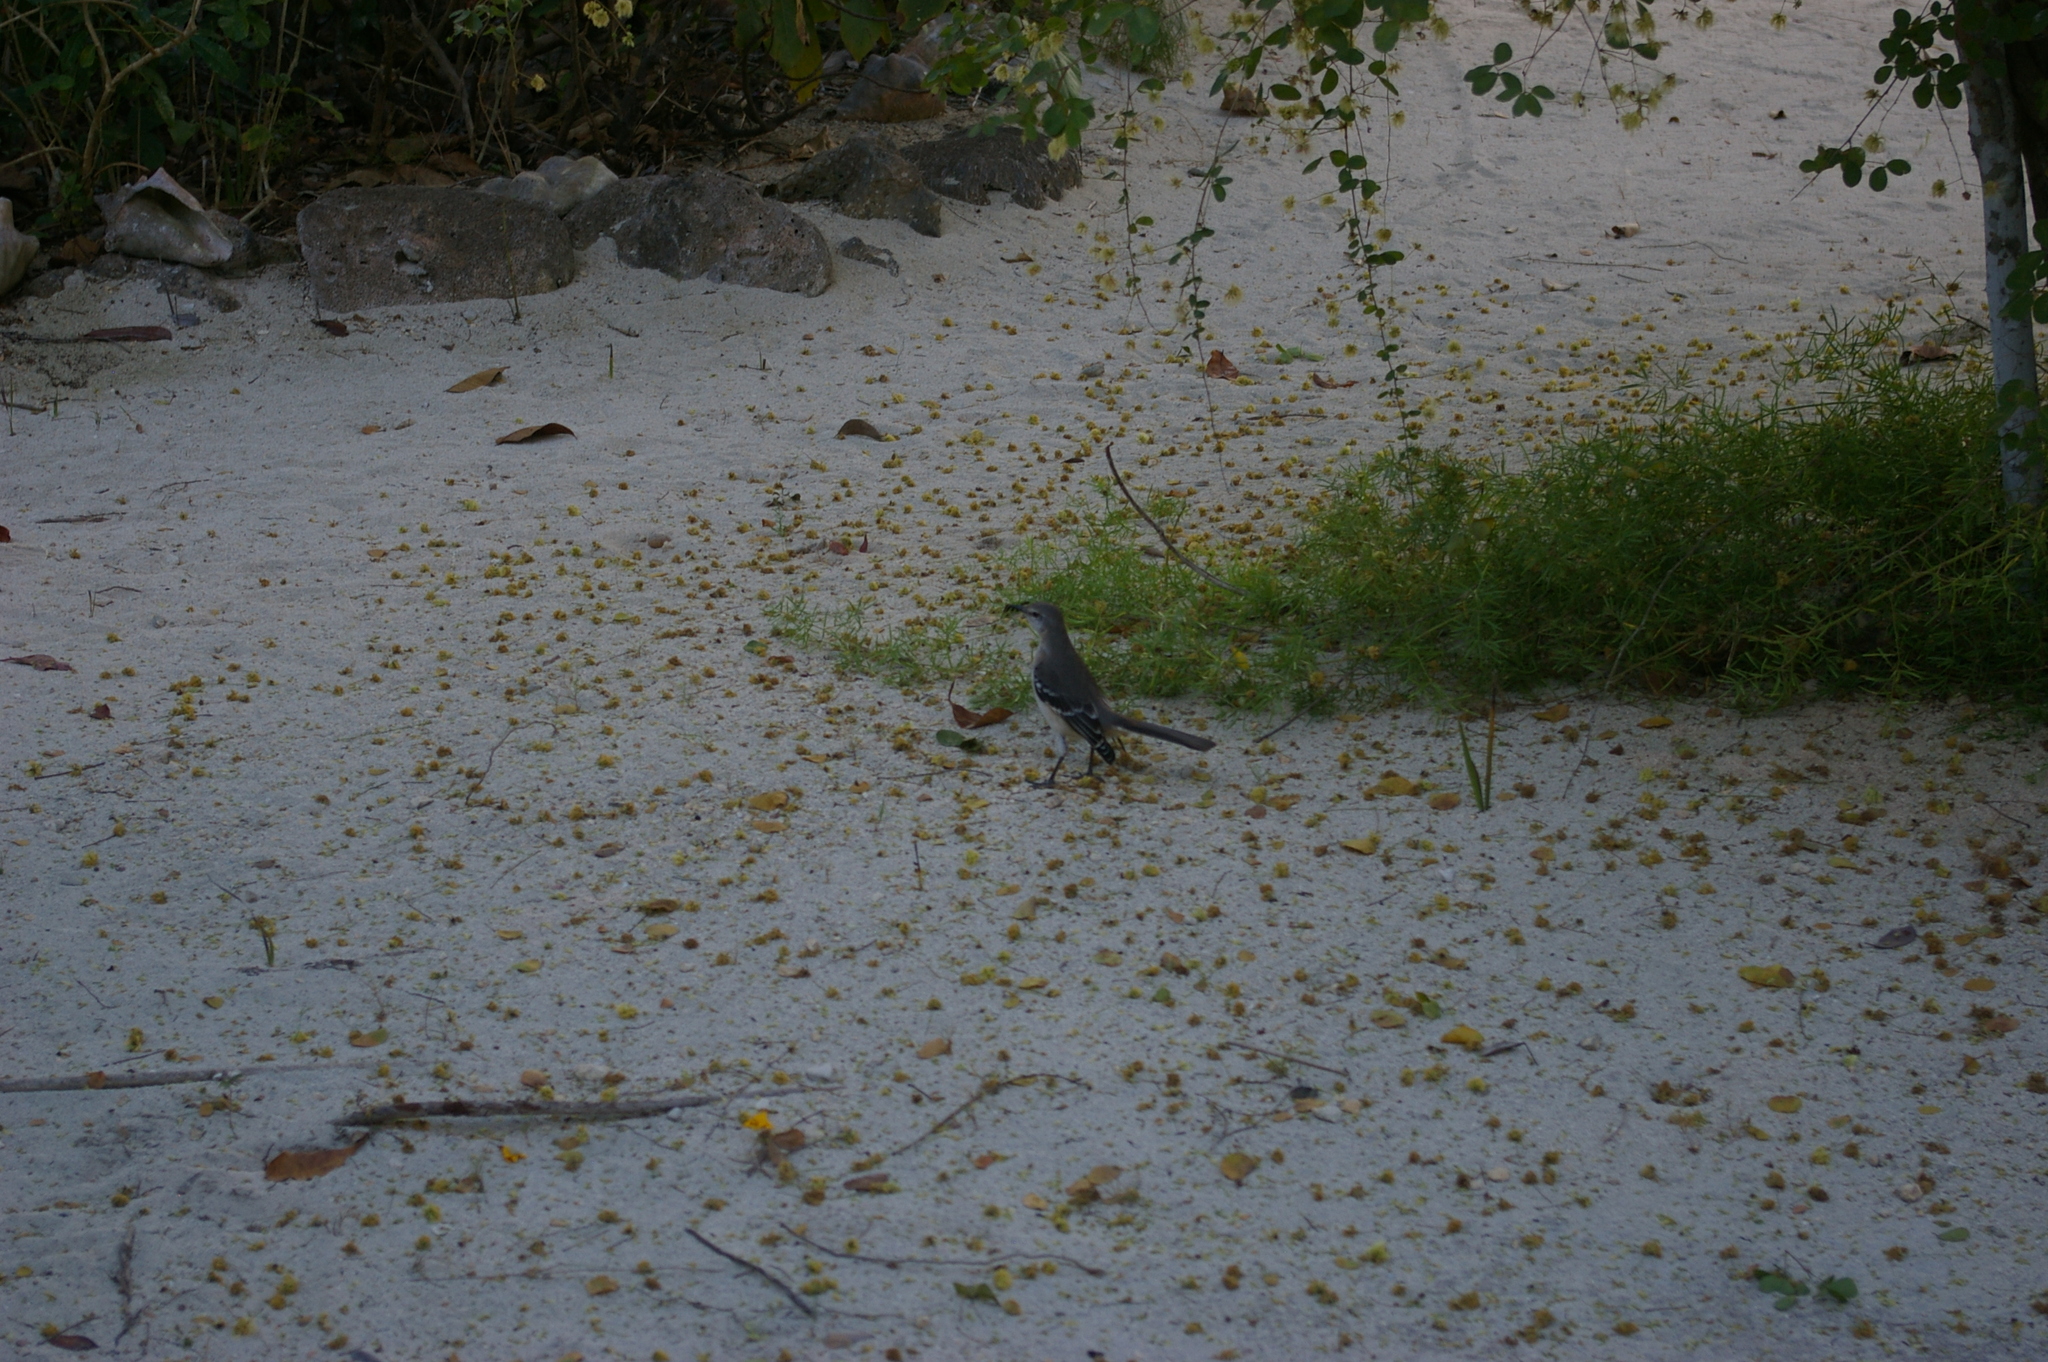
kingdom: Animalia
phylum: Chordata
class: Aves
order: Passeriformes
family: Mimidae
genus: Mimus
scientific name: Mimus polyglottos
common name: Northern mockingbird
